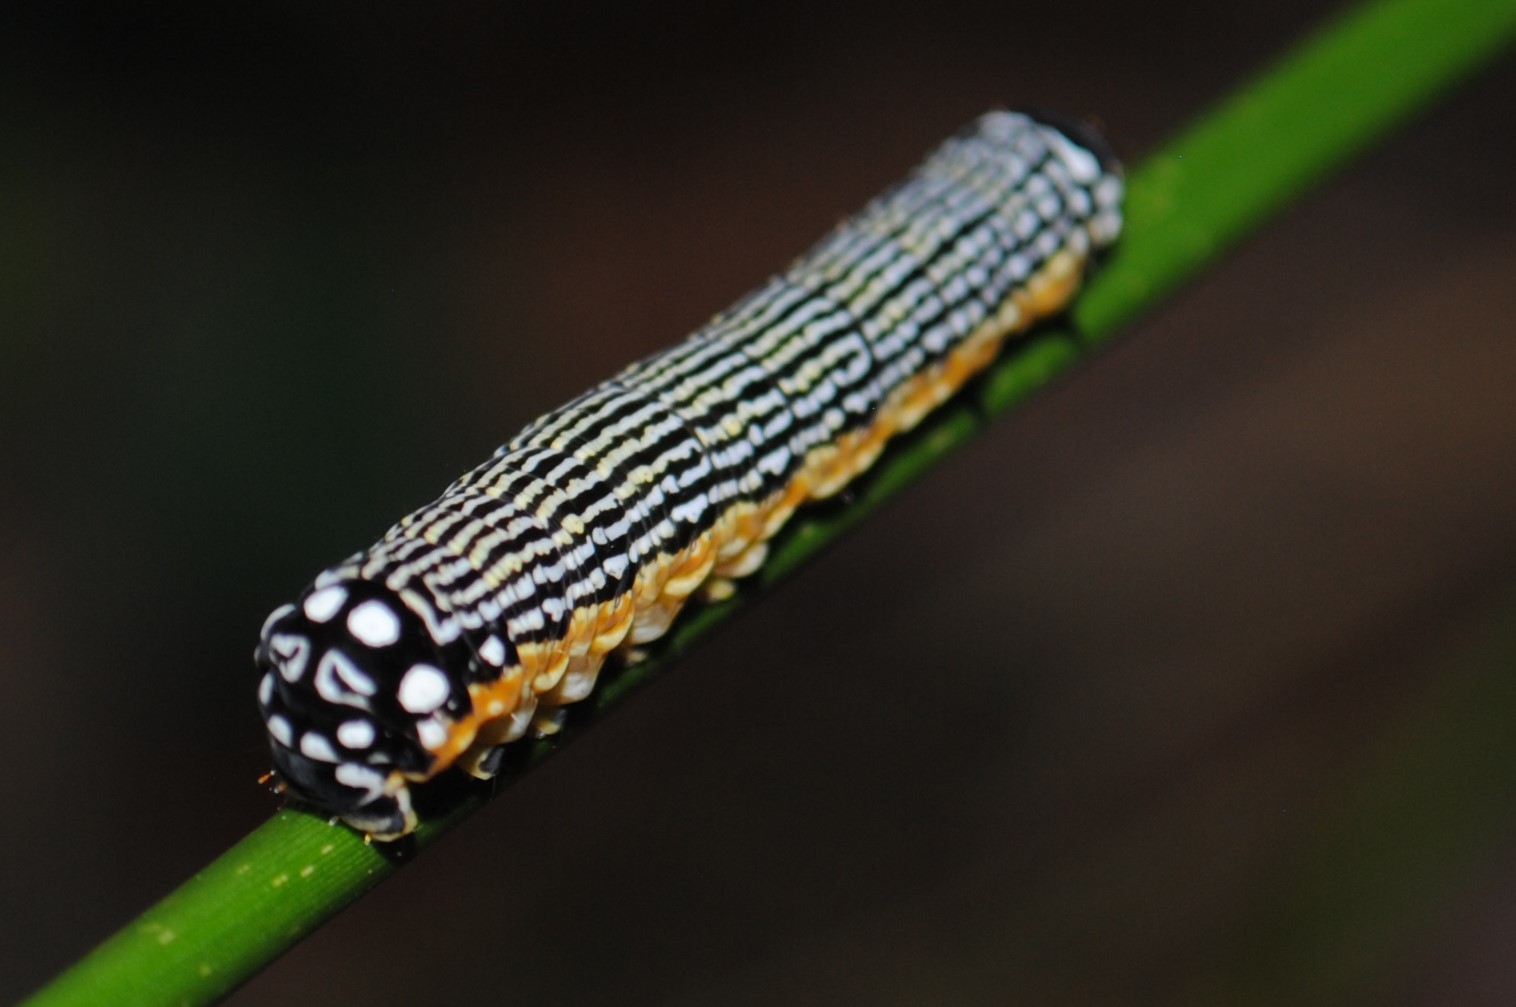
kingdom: Animalia
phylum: Arthropoda
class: Insecta
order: Lepidoptera
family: Noctuidae
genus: Phosphila
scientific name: Phosphila turbulenta
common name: Turbulent phosphila moth
